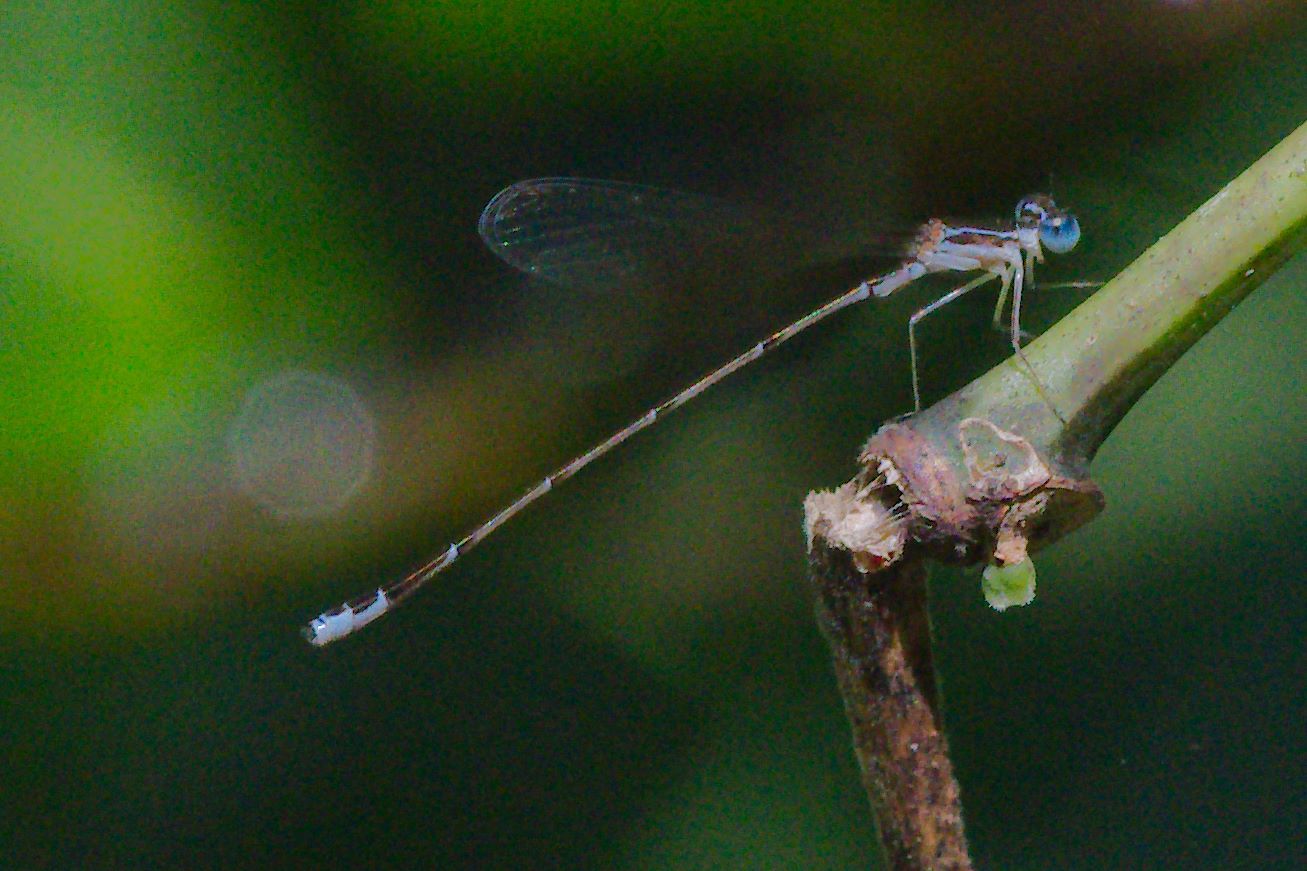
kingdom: Animalia
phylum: Arthropoda
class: Insecta
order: Odonata
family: Coenagrionidae
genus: Nehalennia
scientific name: Nehalennia pallidula
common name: Everglades sprite
